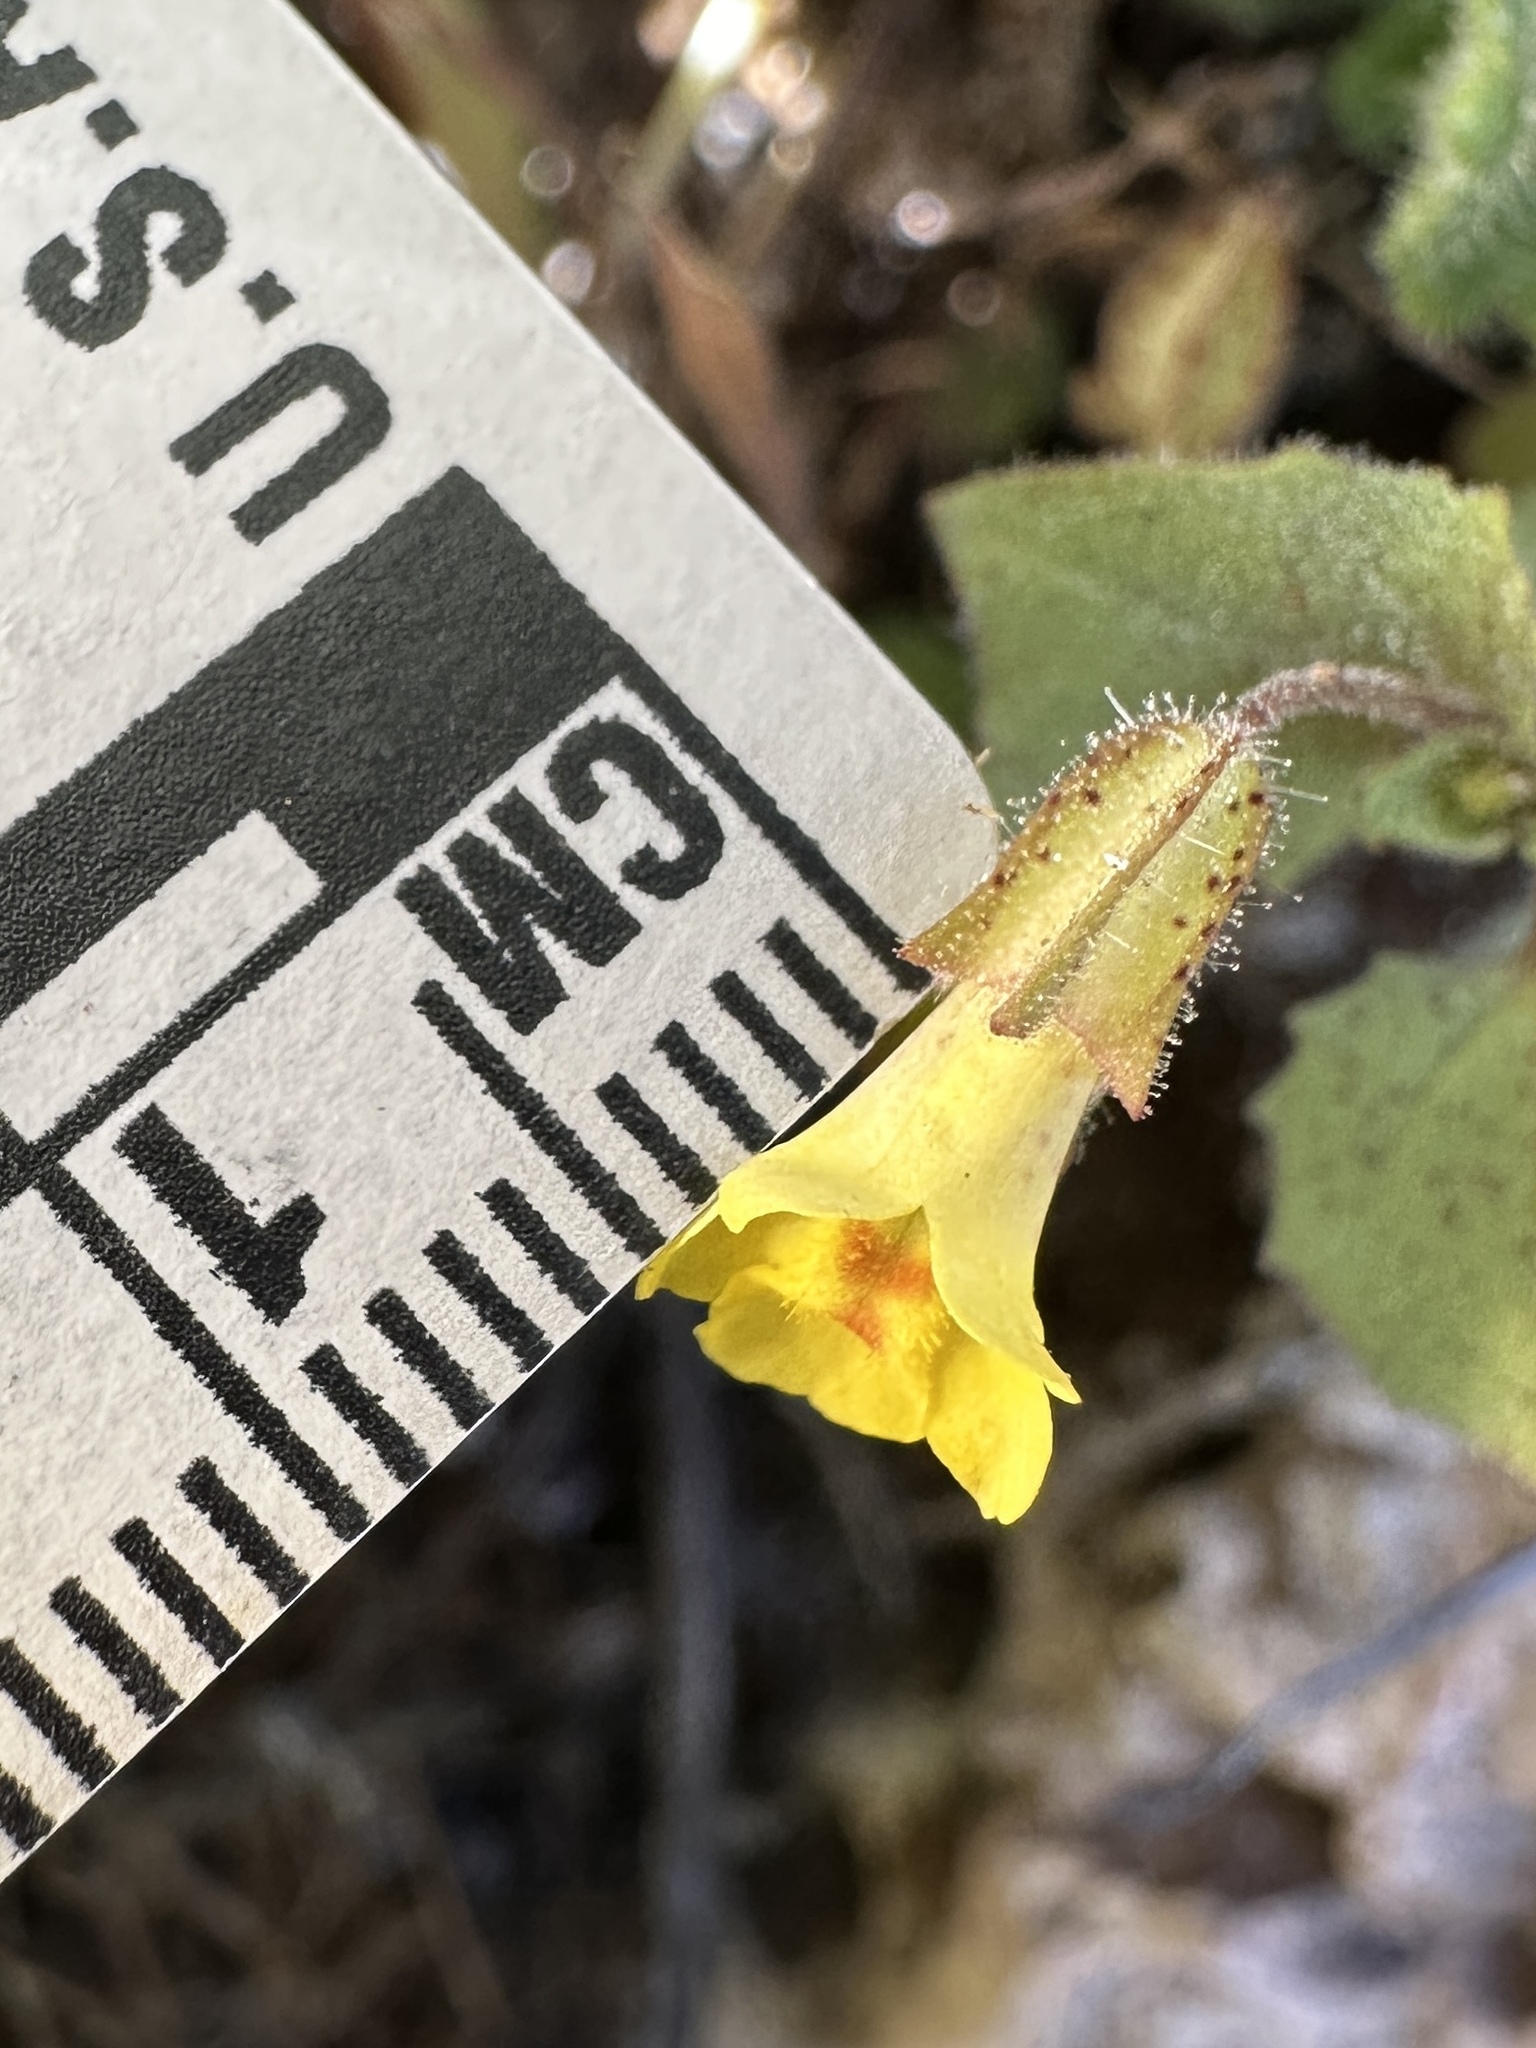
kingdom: Plantae
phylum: Tracheophyta
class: Magnoliopsida
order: Lamiales
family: Phrymaceae
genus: Erythranthe
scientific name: Erythranthe marmorata
